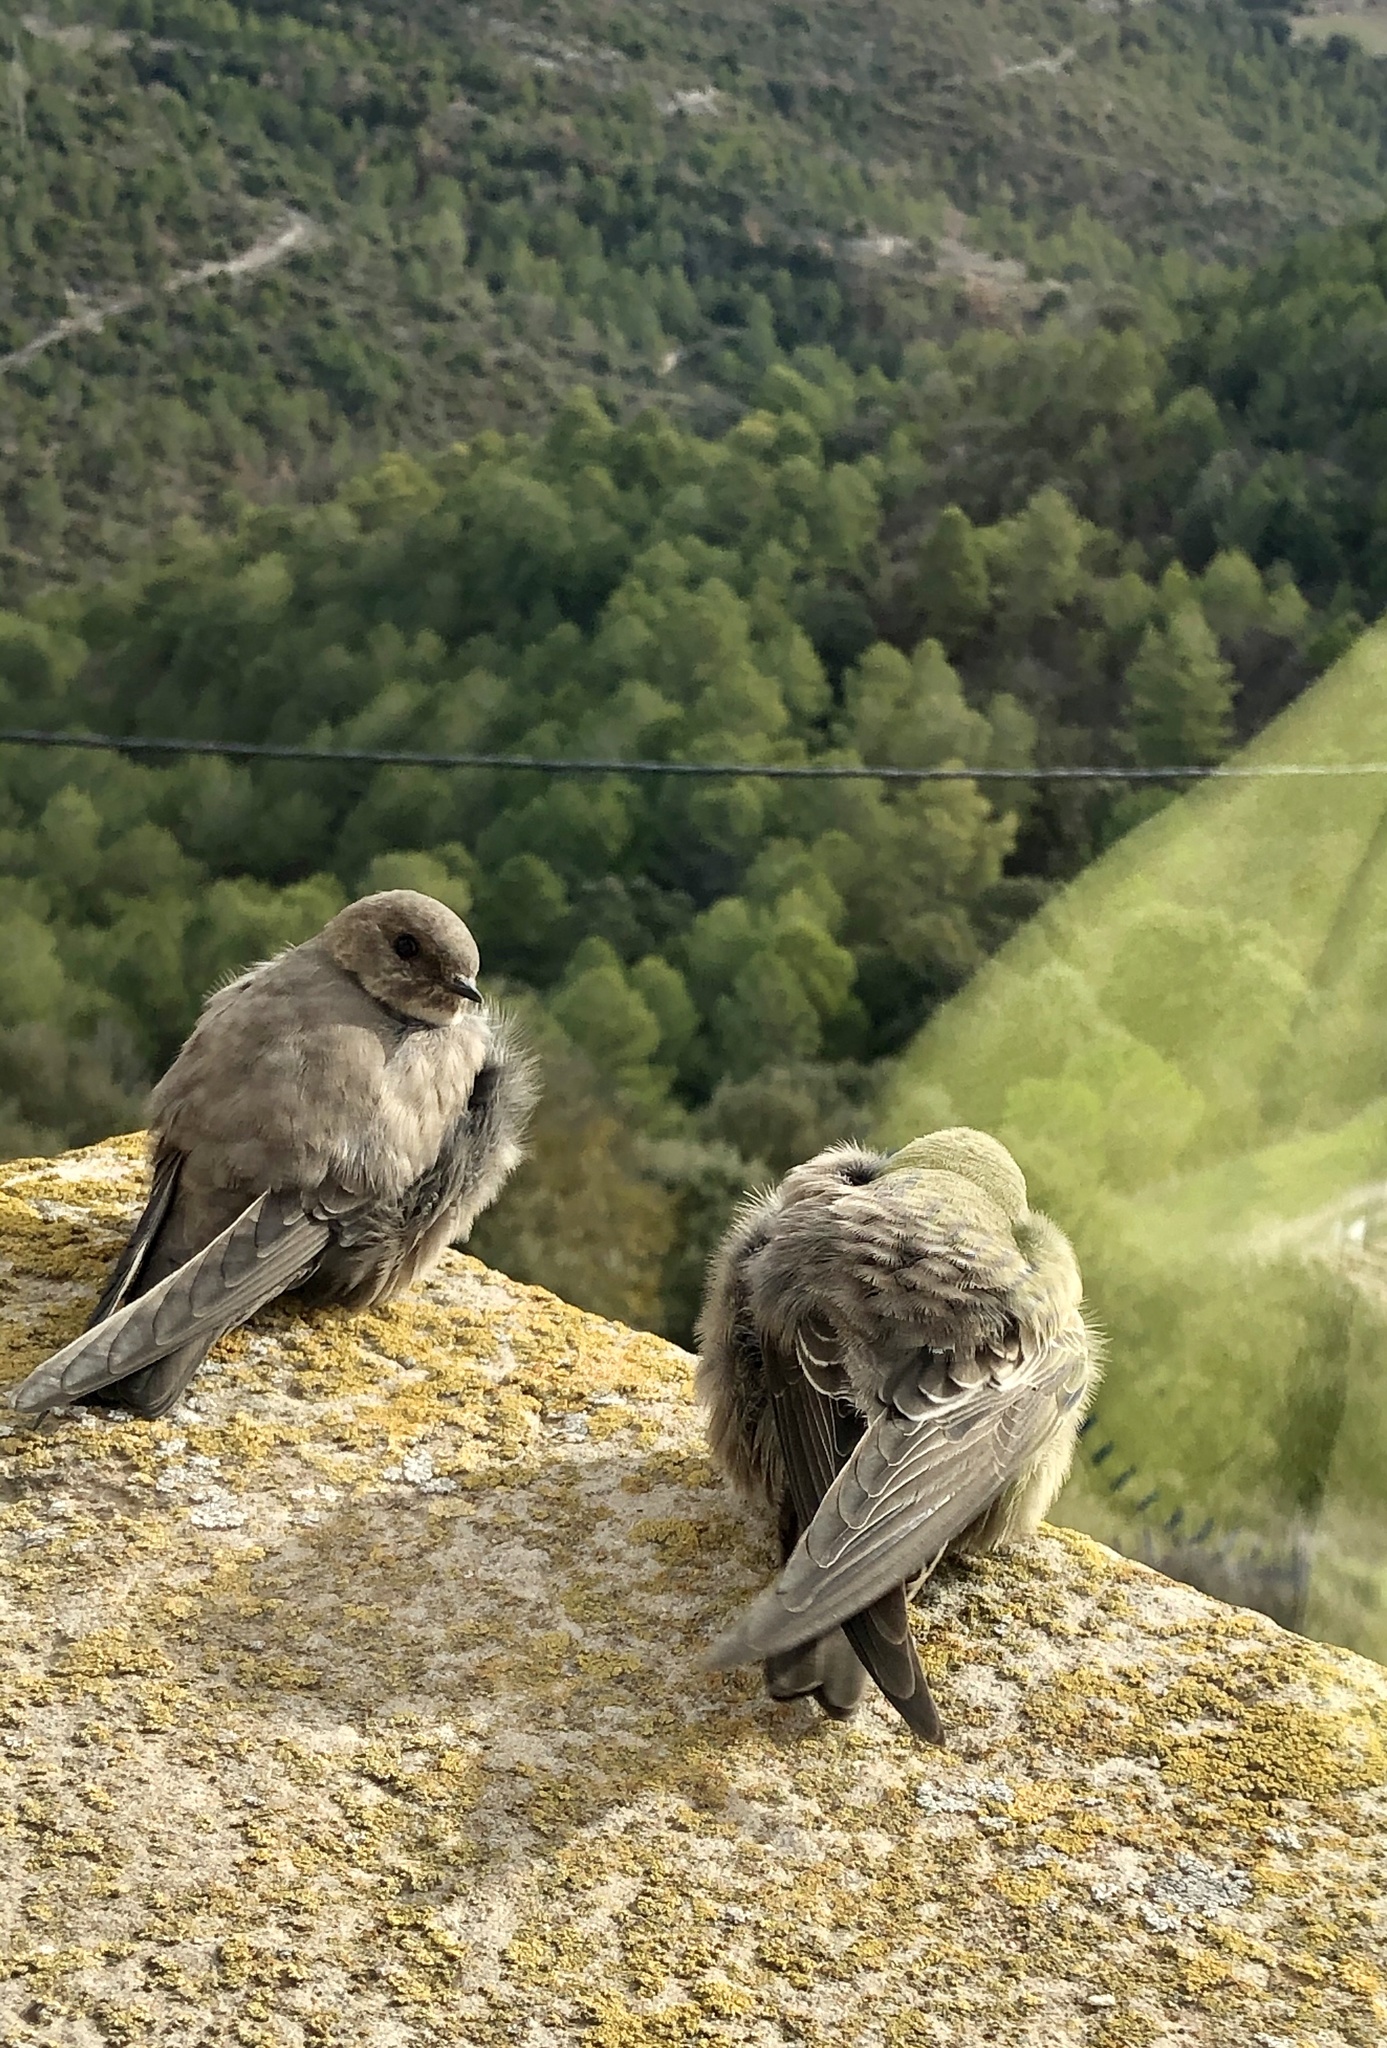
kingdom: Animalia
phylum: Chordata
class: Aves
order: Passeriformes
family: Hirundinidae
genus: Ptyonoprogne
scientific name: Ptyonoprogne rupestris
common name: Eurasian crag martin
